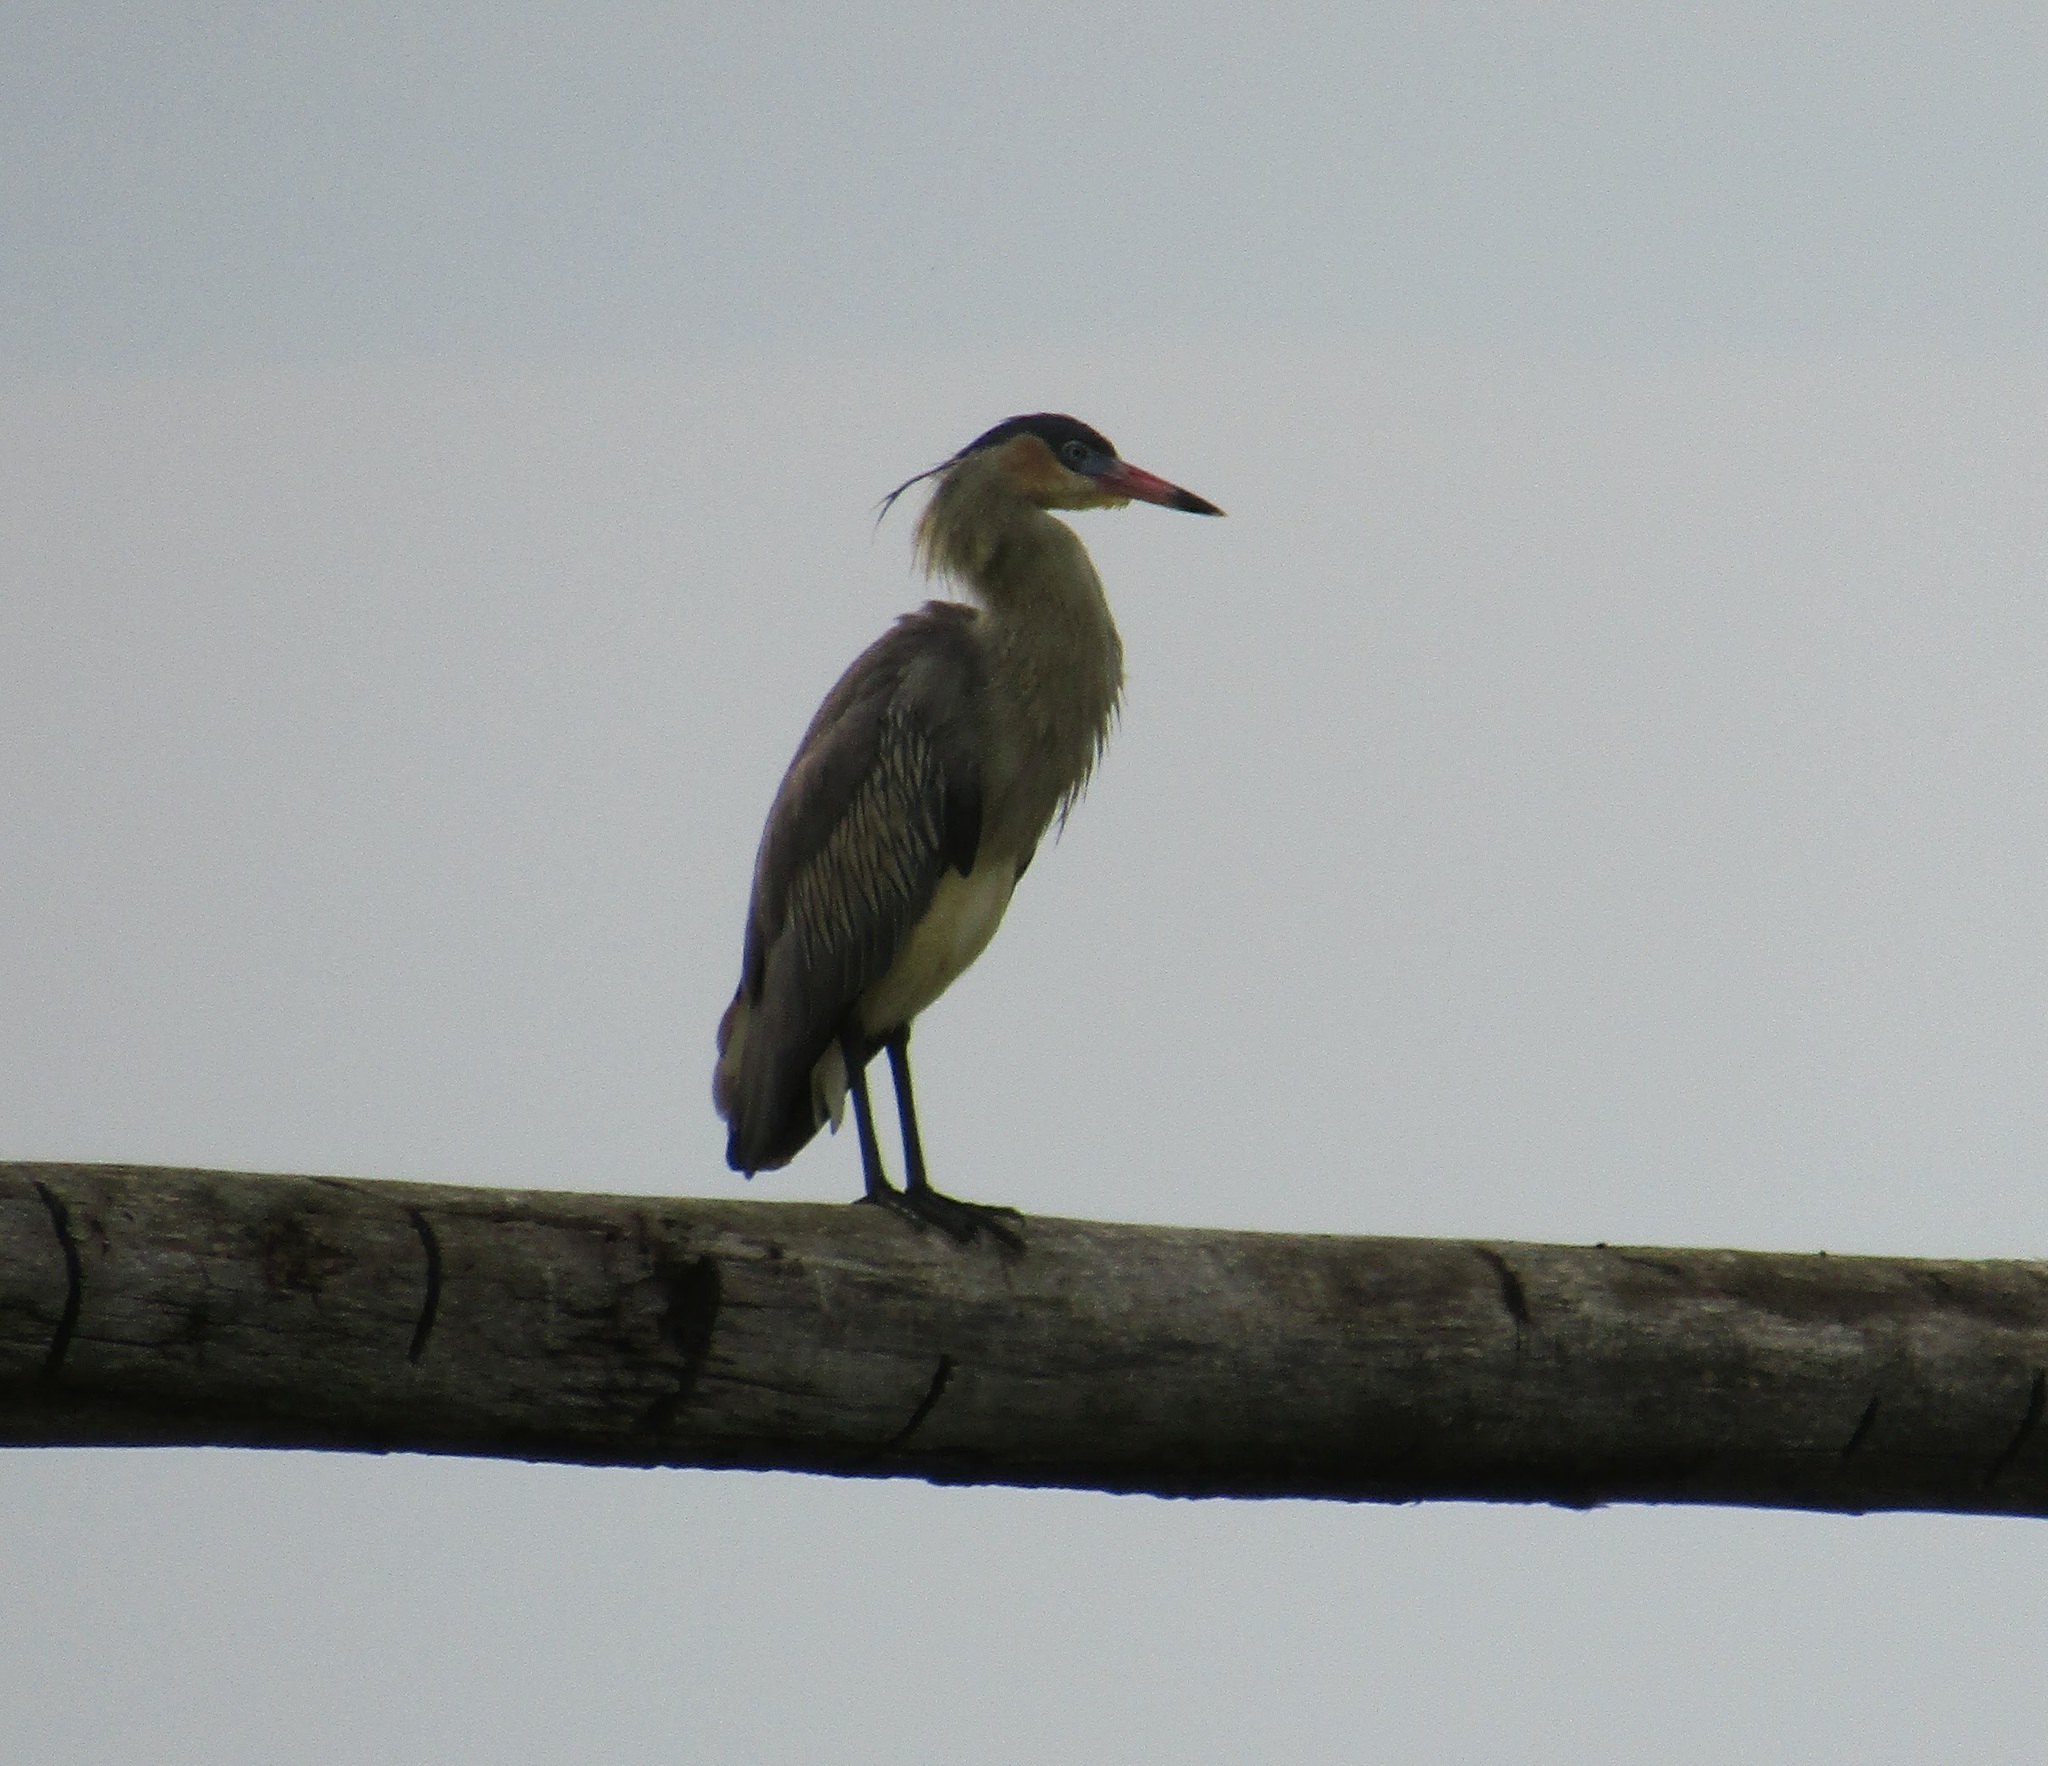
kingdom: Animalia
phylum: Chordata
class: Aves
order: Pelecaniformes
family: Ardeidae
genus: Syrigma
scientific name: Syrigma sibilatrix
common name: Whistling heron
